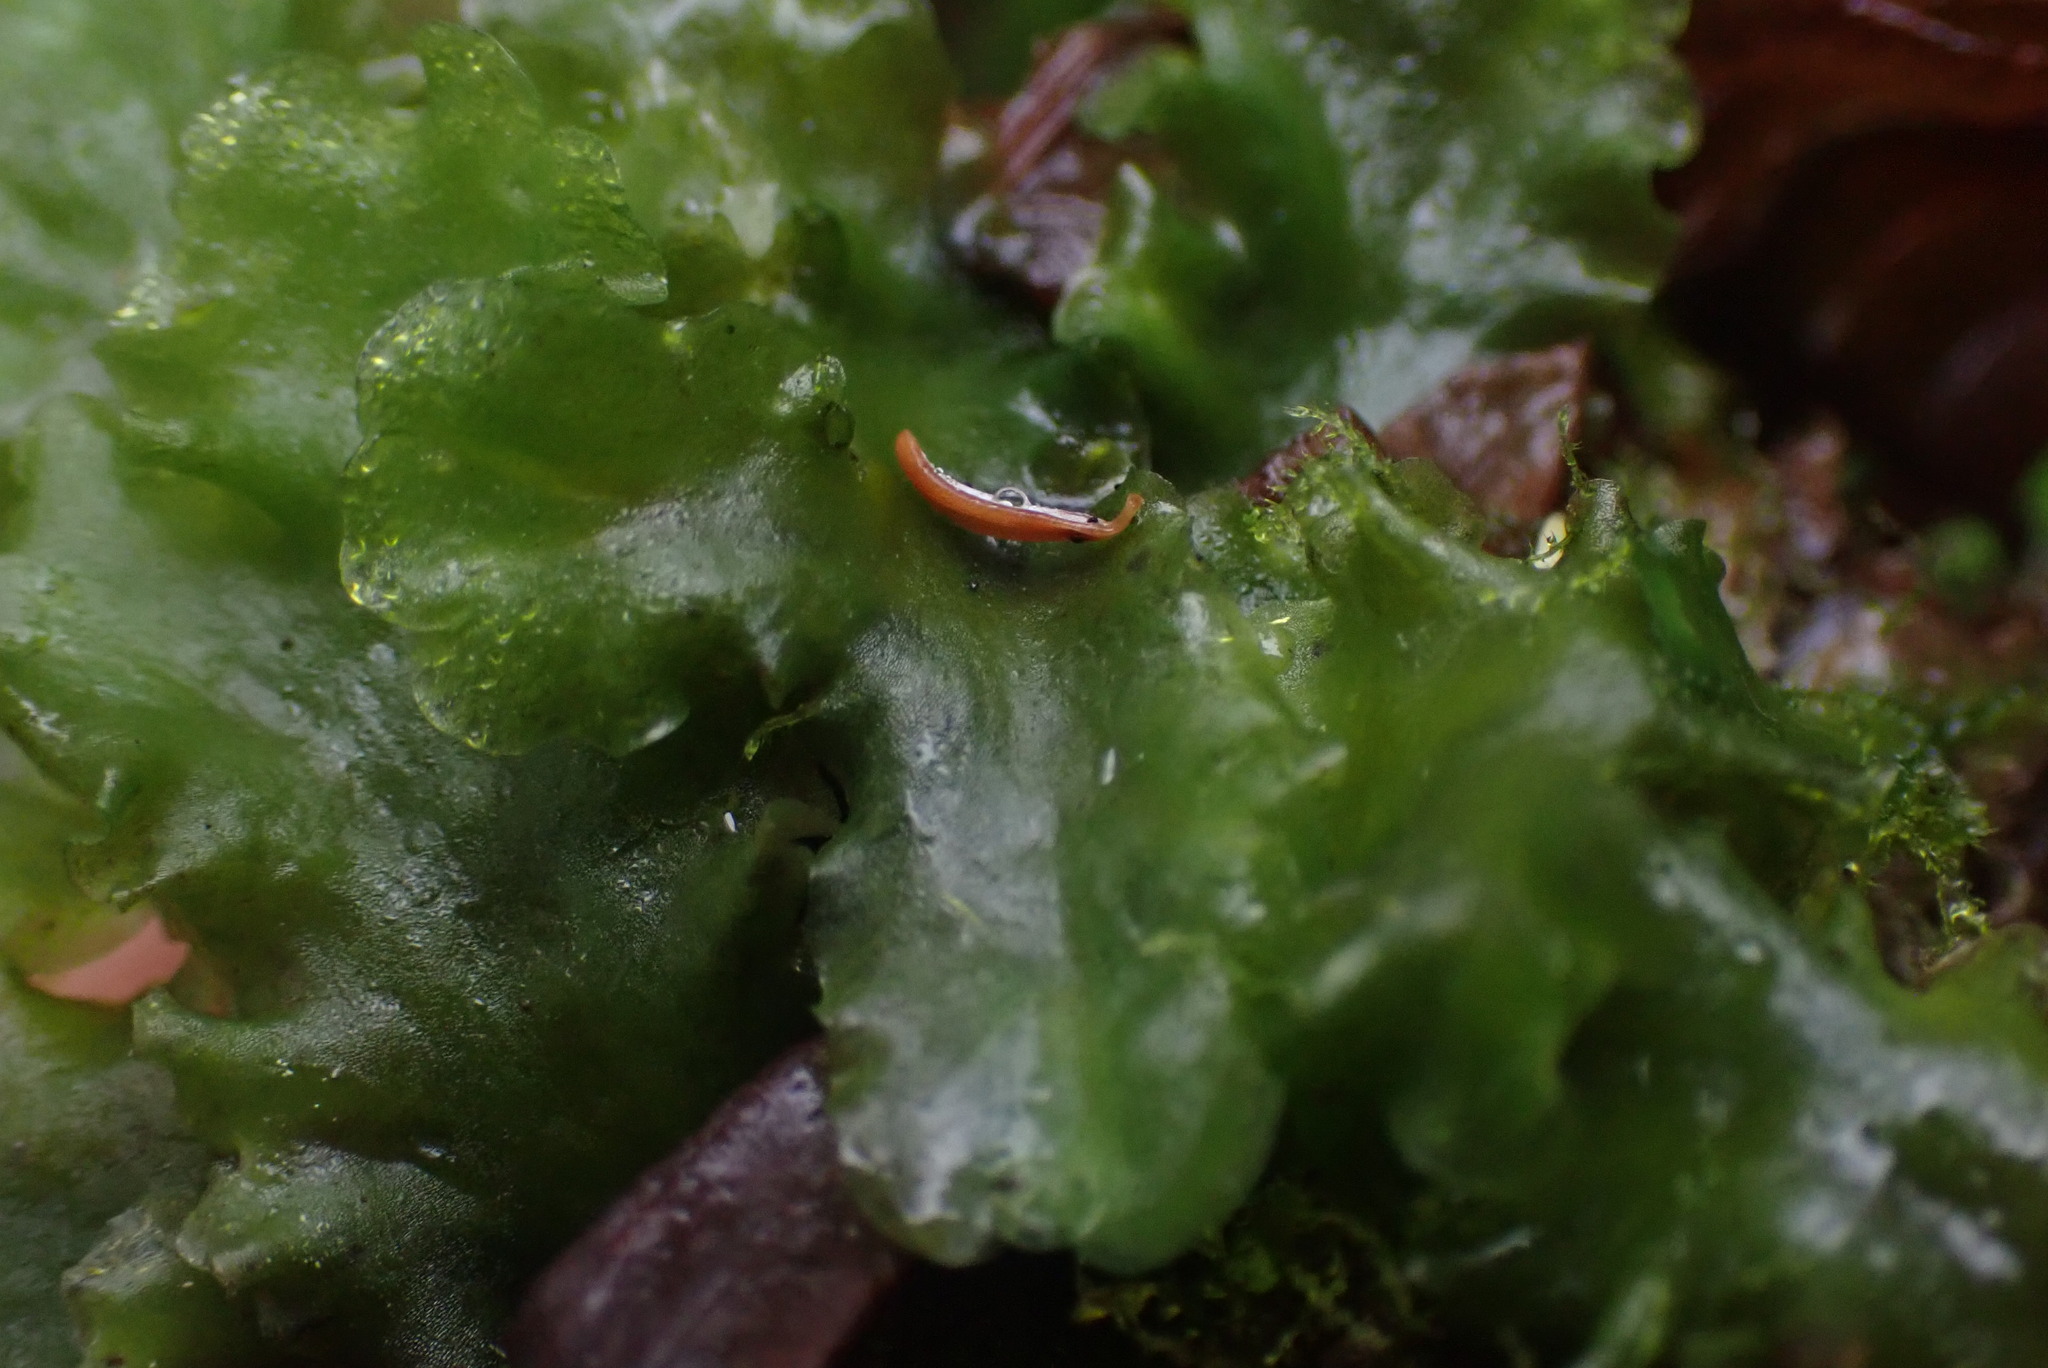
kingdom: Plantae
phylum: Marchantiophyta
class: Jungermanniopsida
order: Pelliales
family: Pelliaceae
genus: Pellia
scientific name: Pellia neesiana
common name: Nees  pellia
